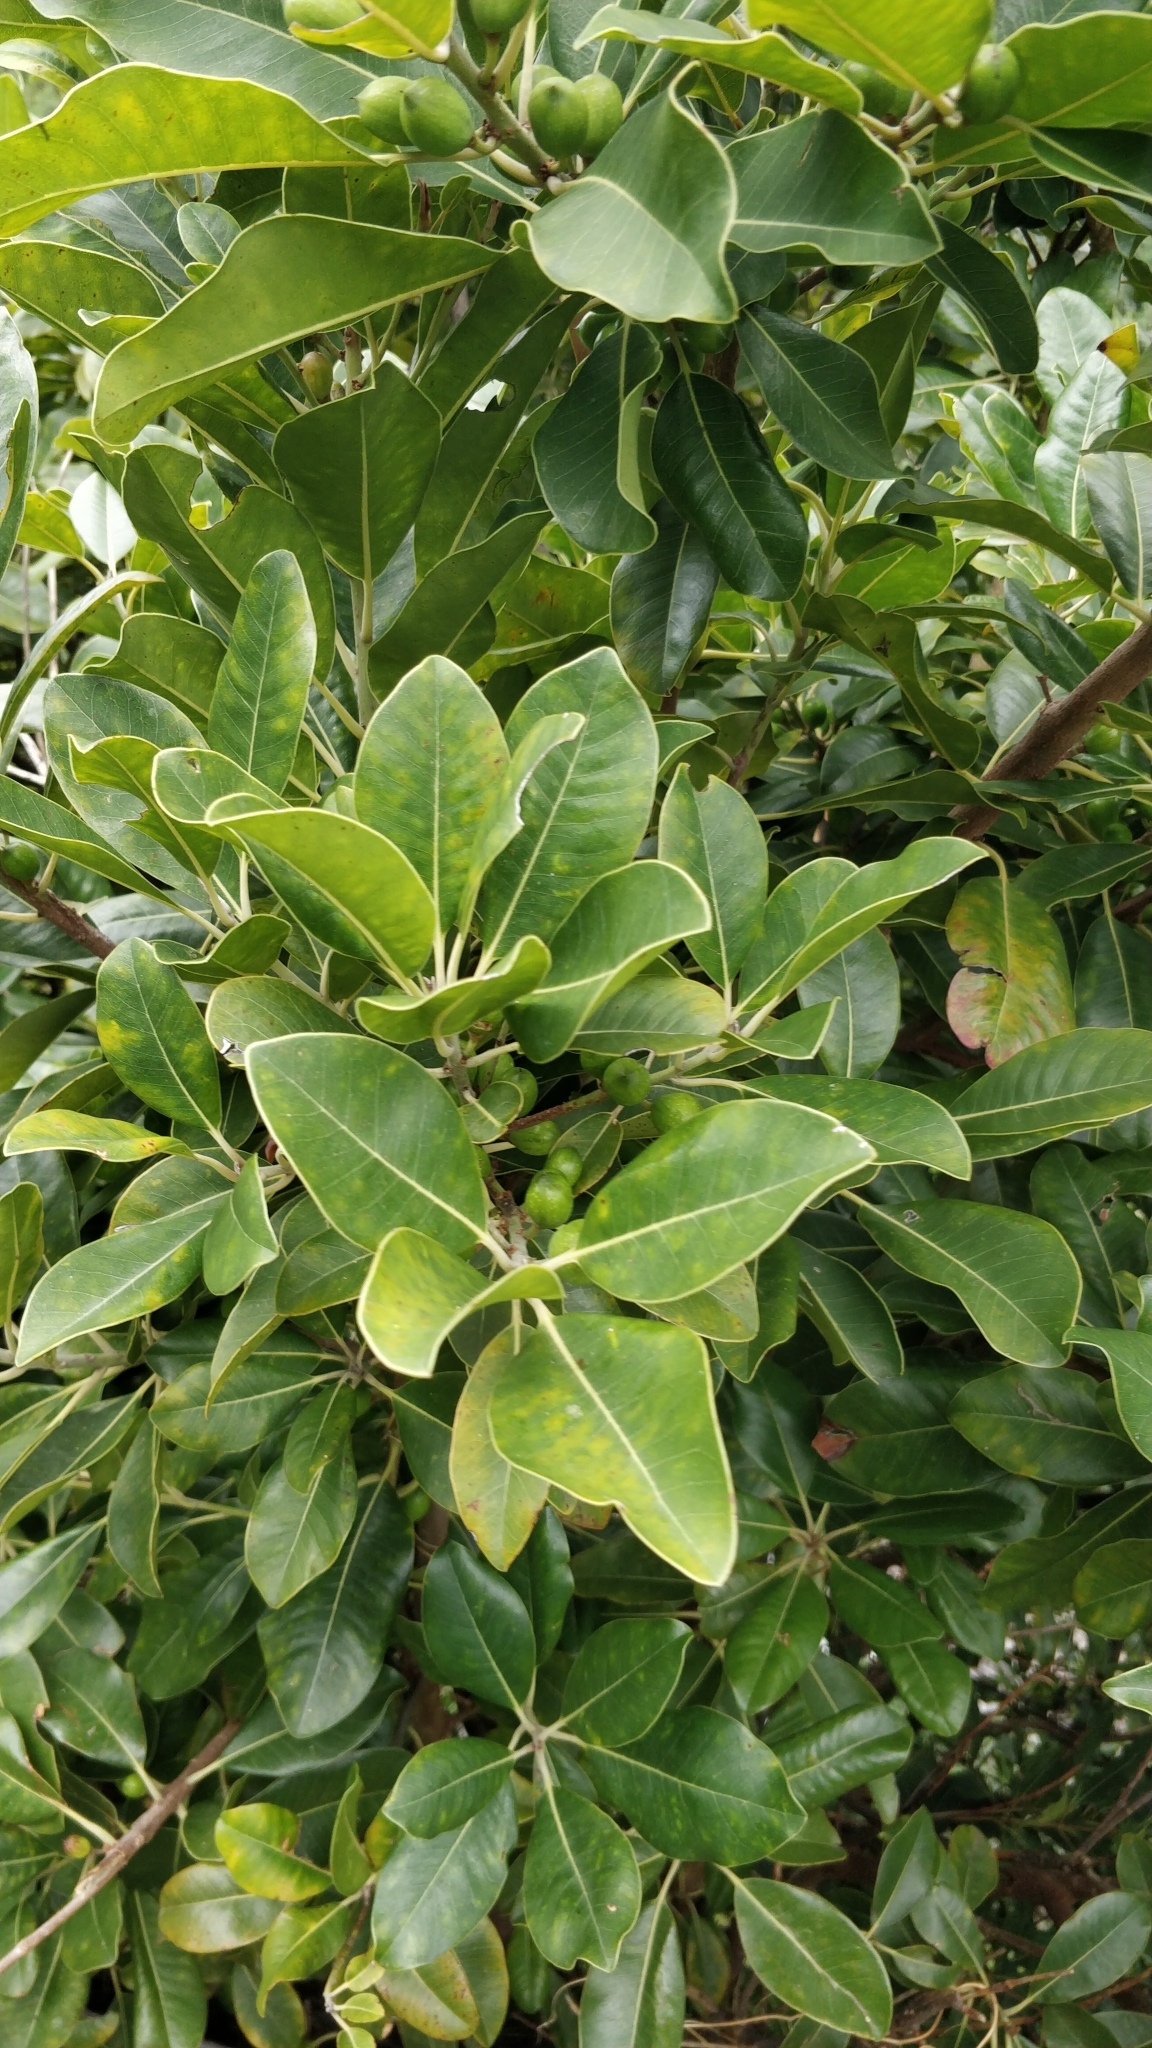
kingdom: Plantae
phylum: Tracheophyta
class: Magnoliopsida
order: Ericales
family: Sapotaceae
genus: Sideroxylon
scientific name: Sideroxylon mirmulans
